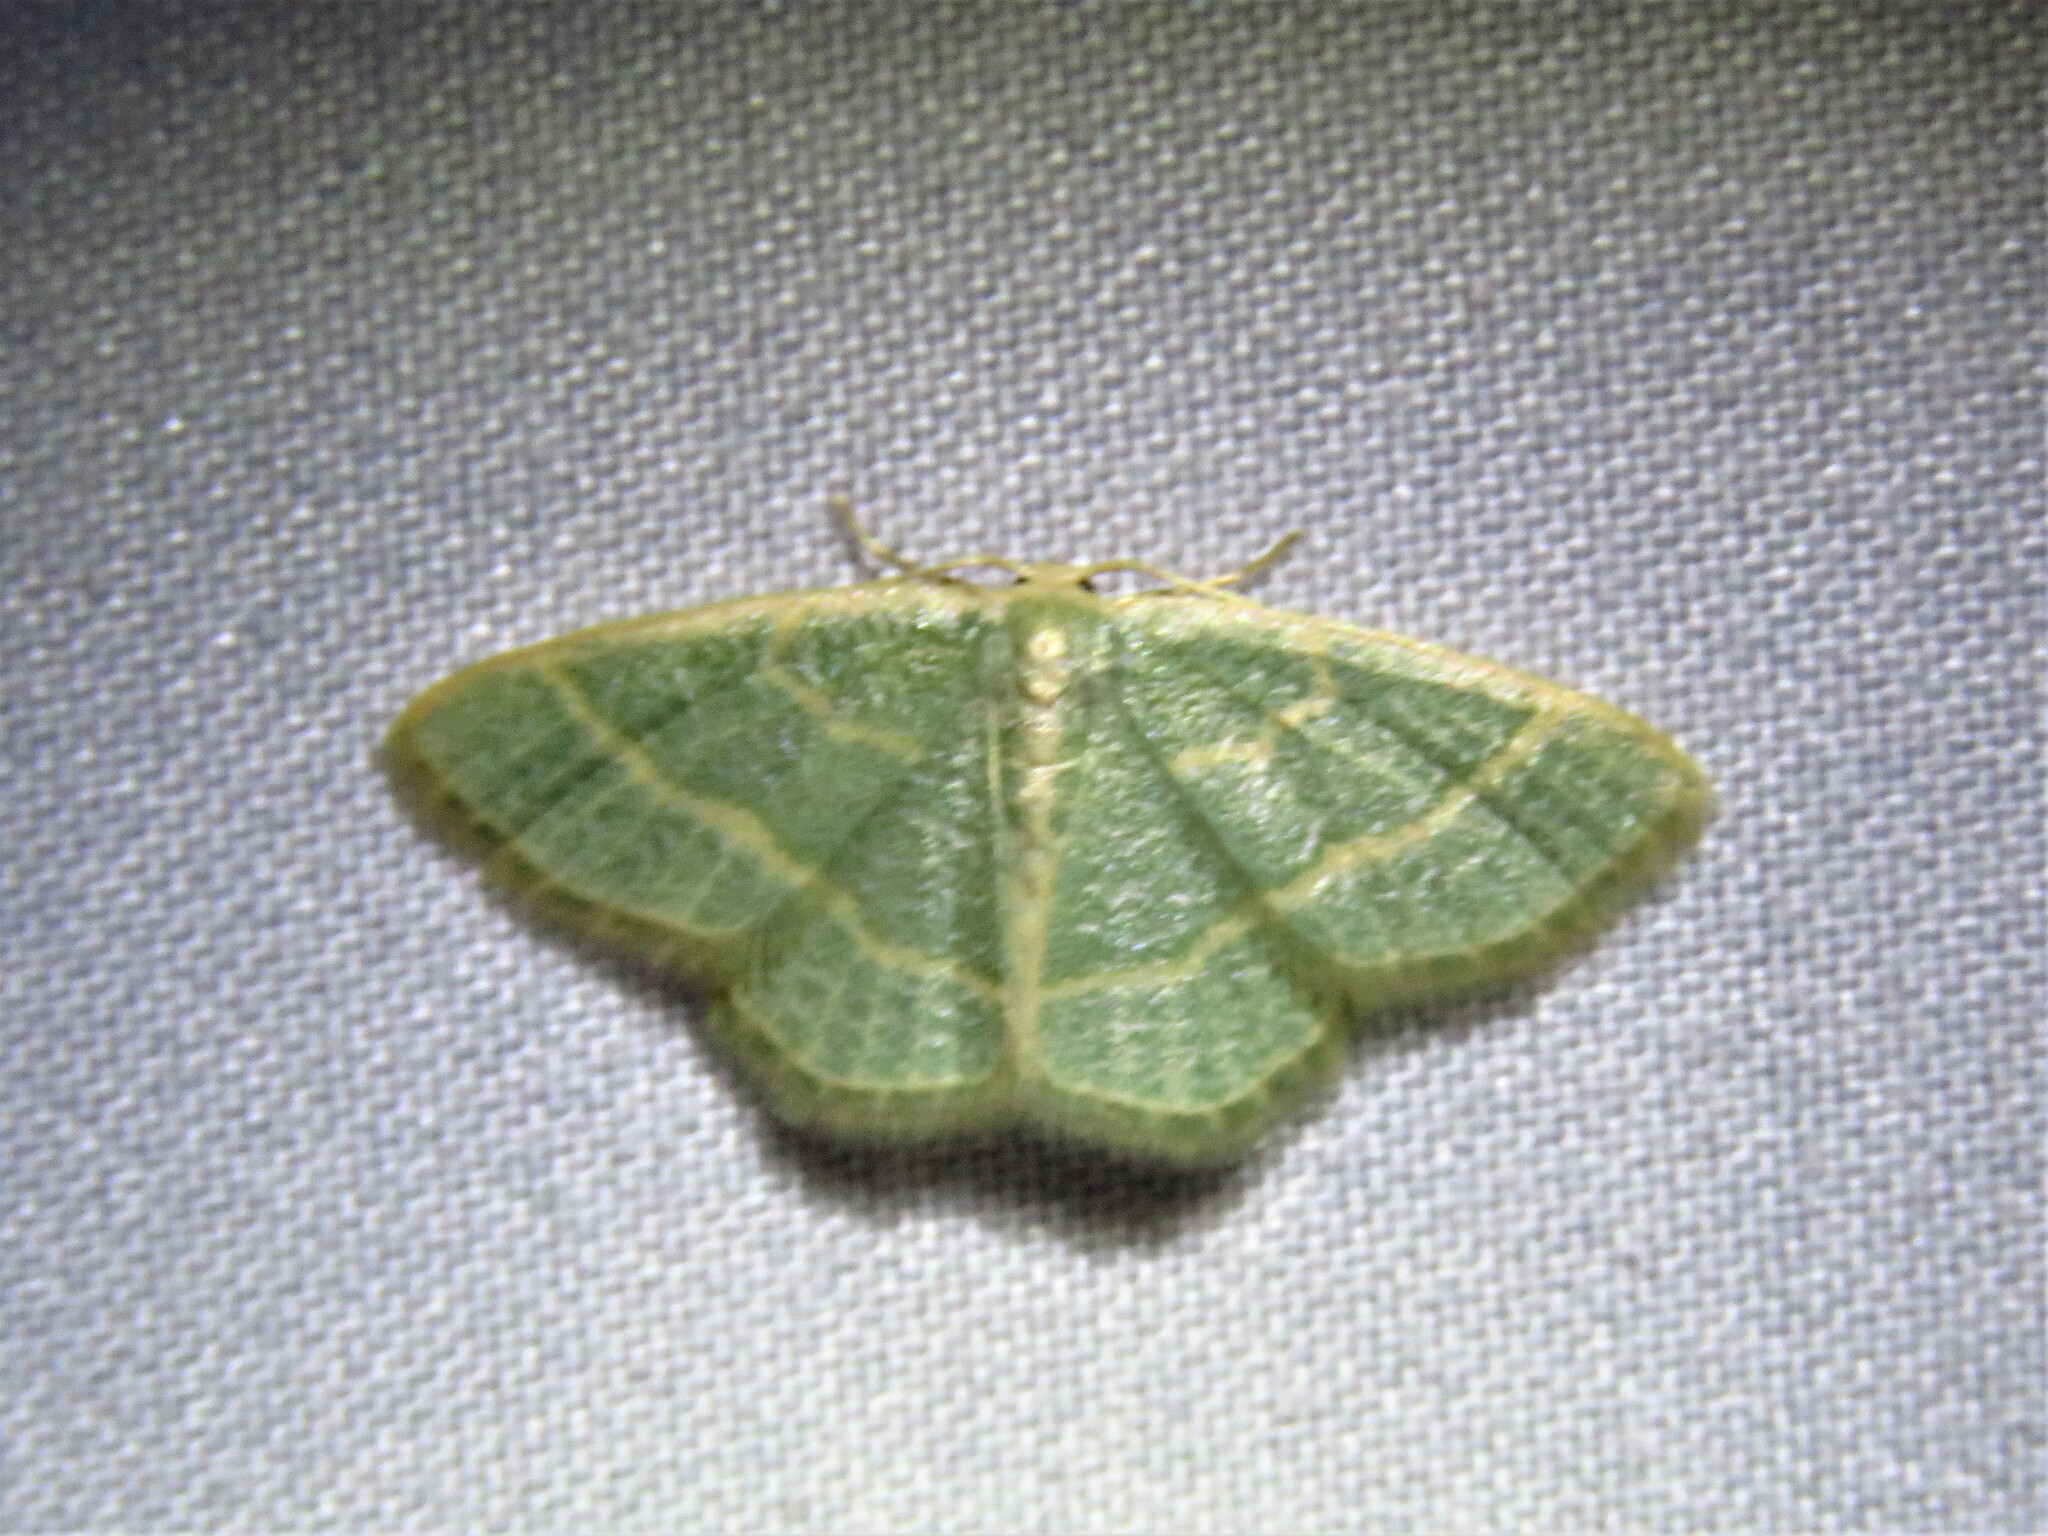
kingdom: Animalia
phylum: Arthropoda
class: Insecta
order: Lepidoptera
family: Geometridae
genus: Chlorochlamys
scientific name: Chlorochlamys chloroleucaria
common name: Blackberry looper
